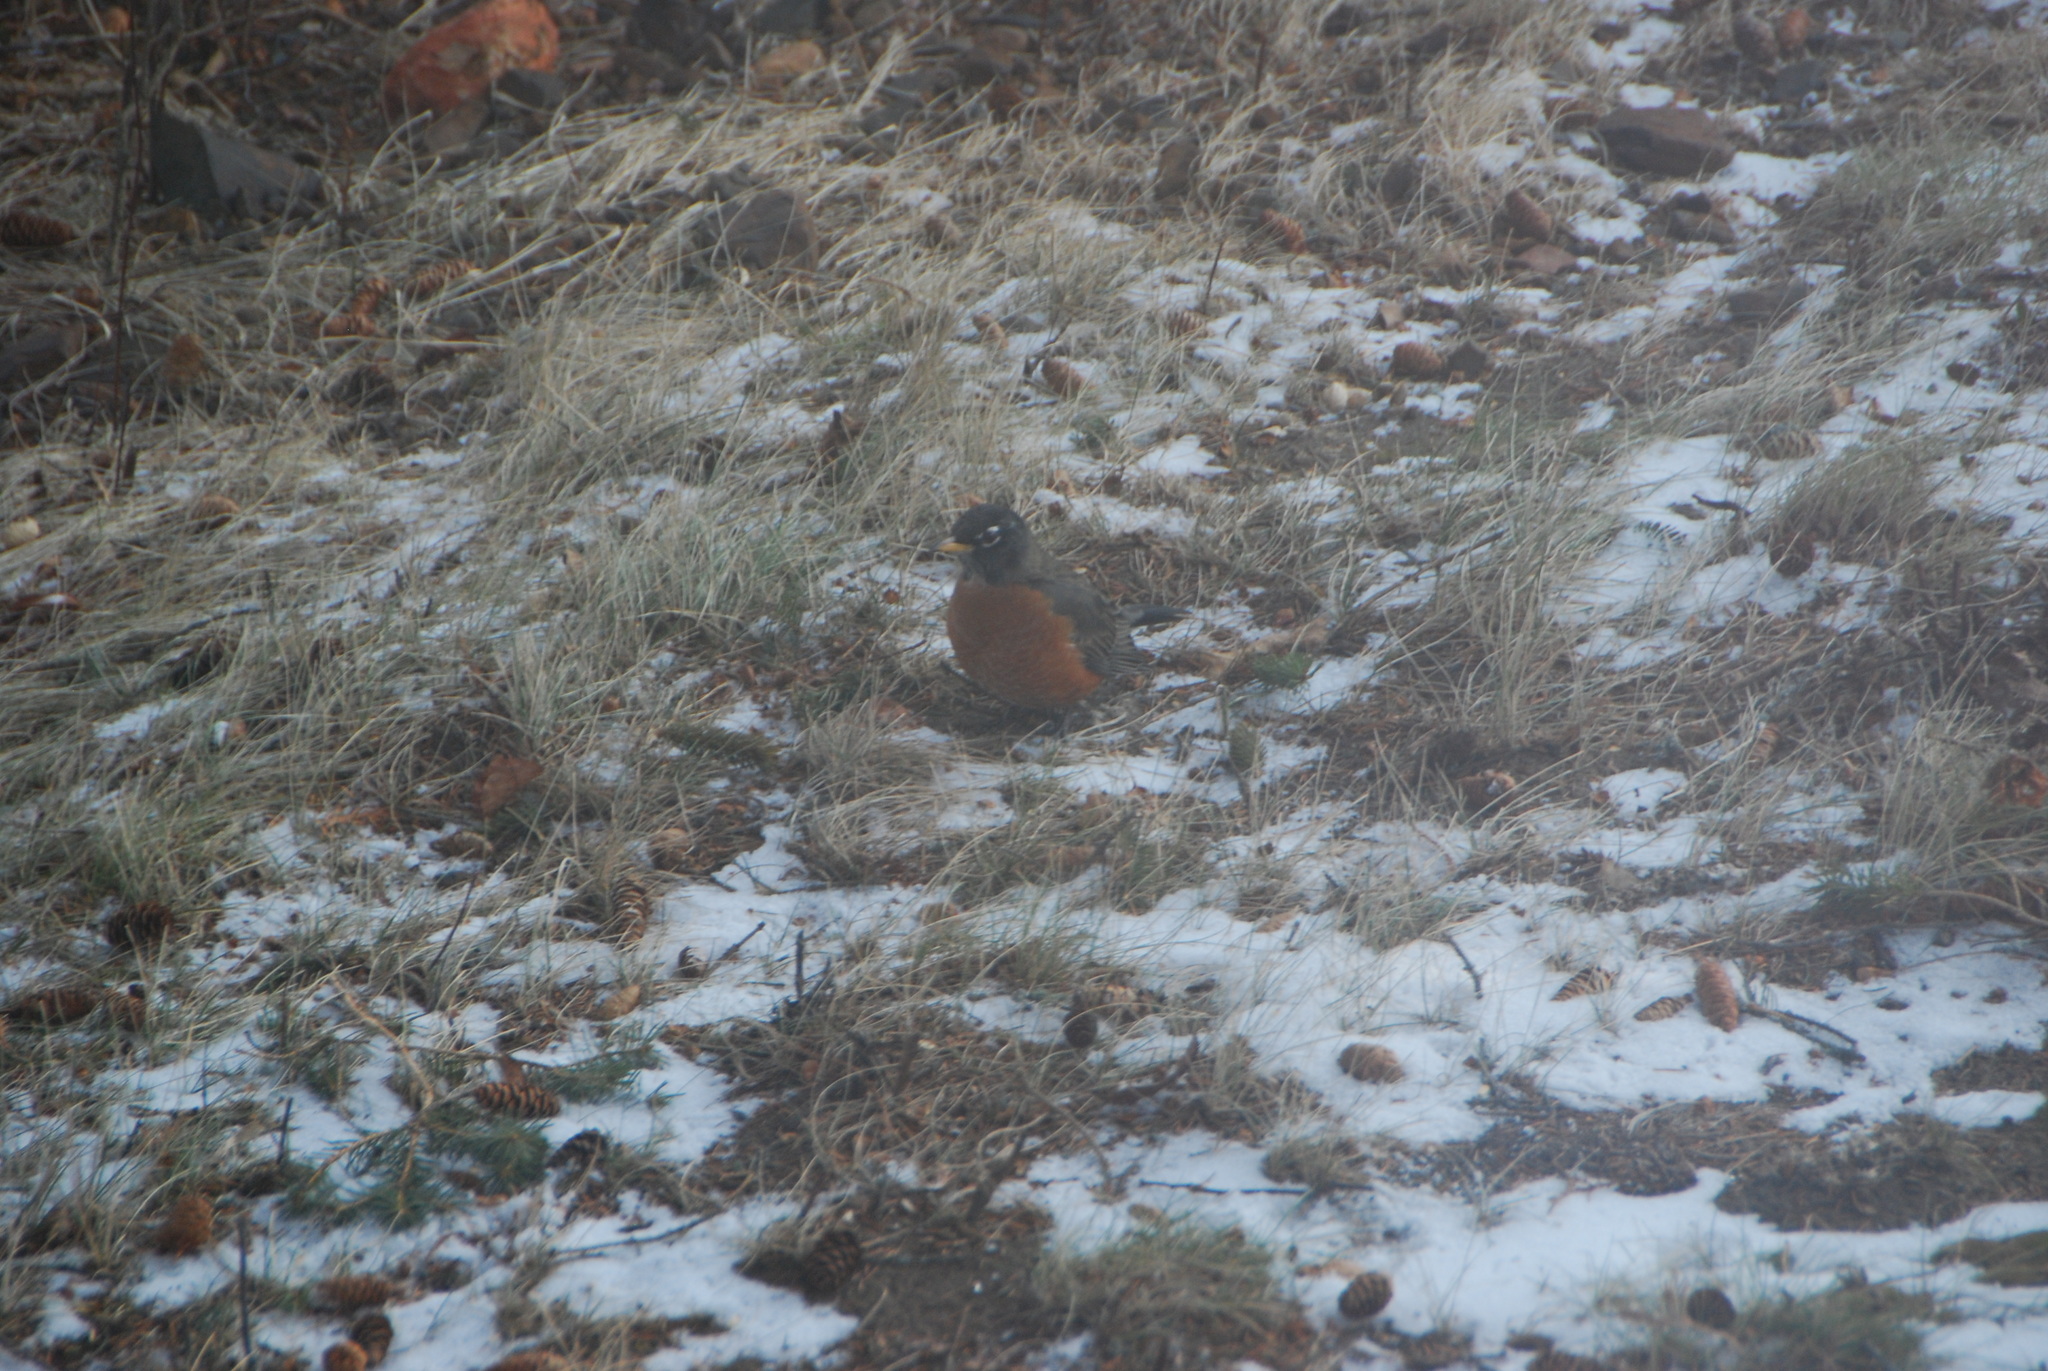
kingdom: Animalia
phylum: Chordata
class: Aves
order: Passeriformes
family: Turdidae
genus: Turdus
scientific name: Turdus migratorius
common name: American robin
